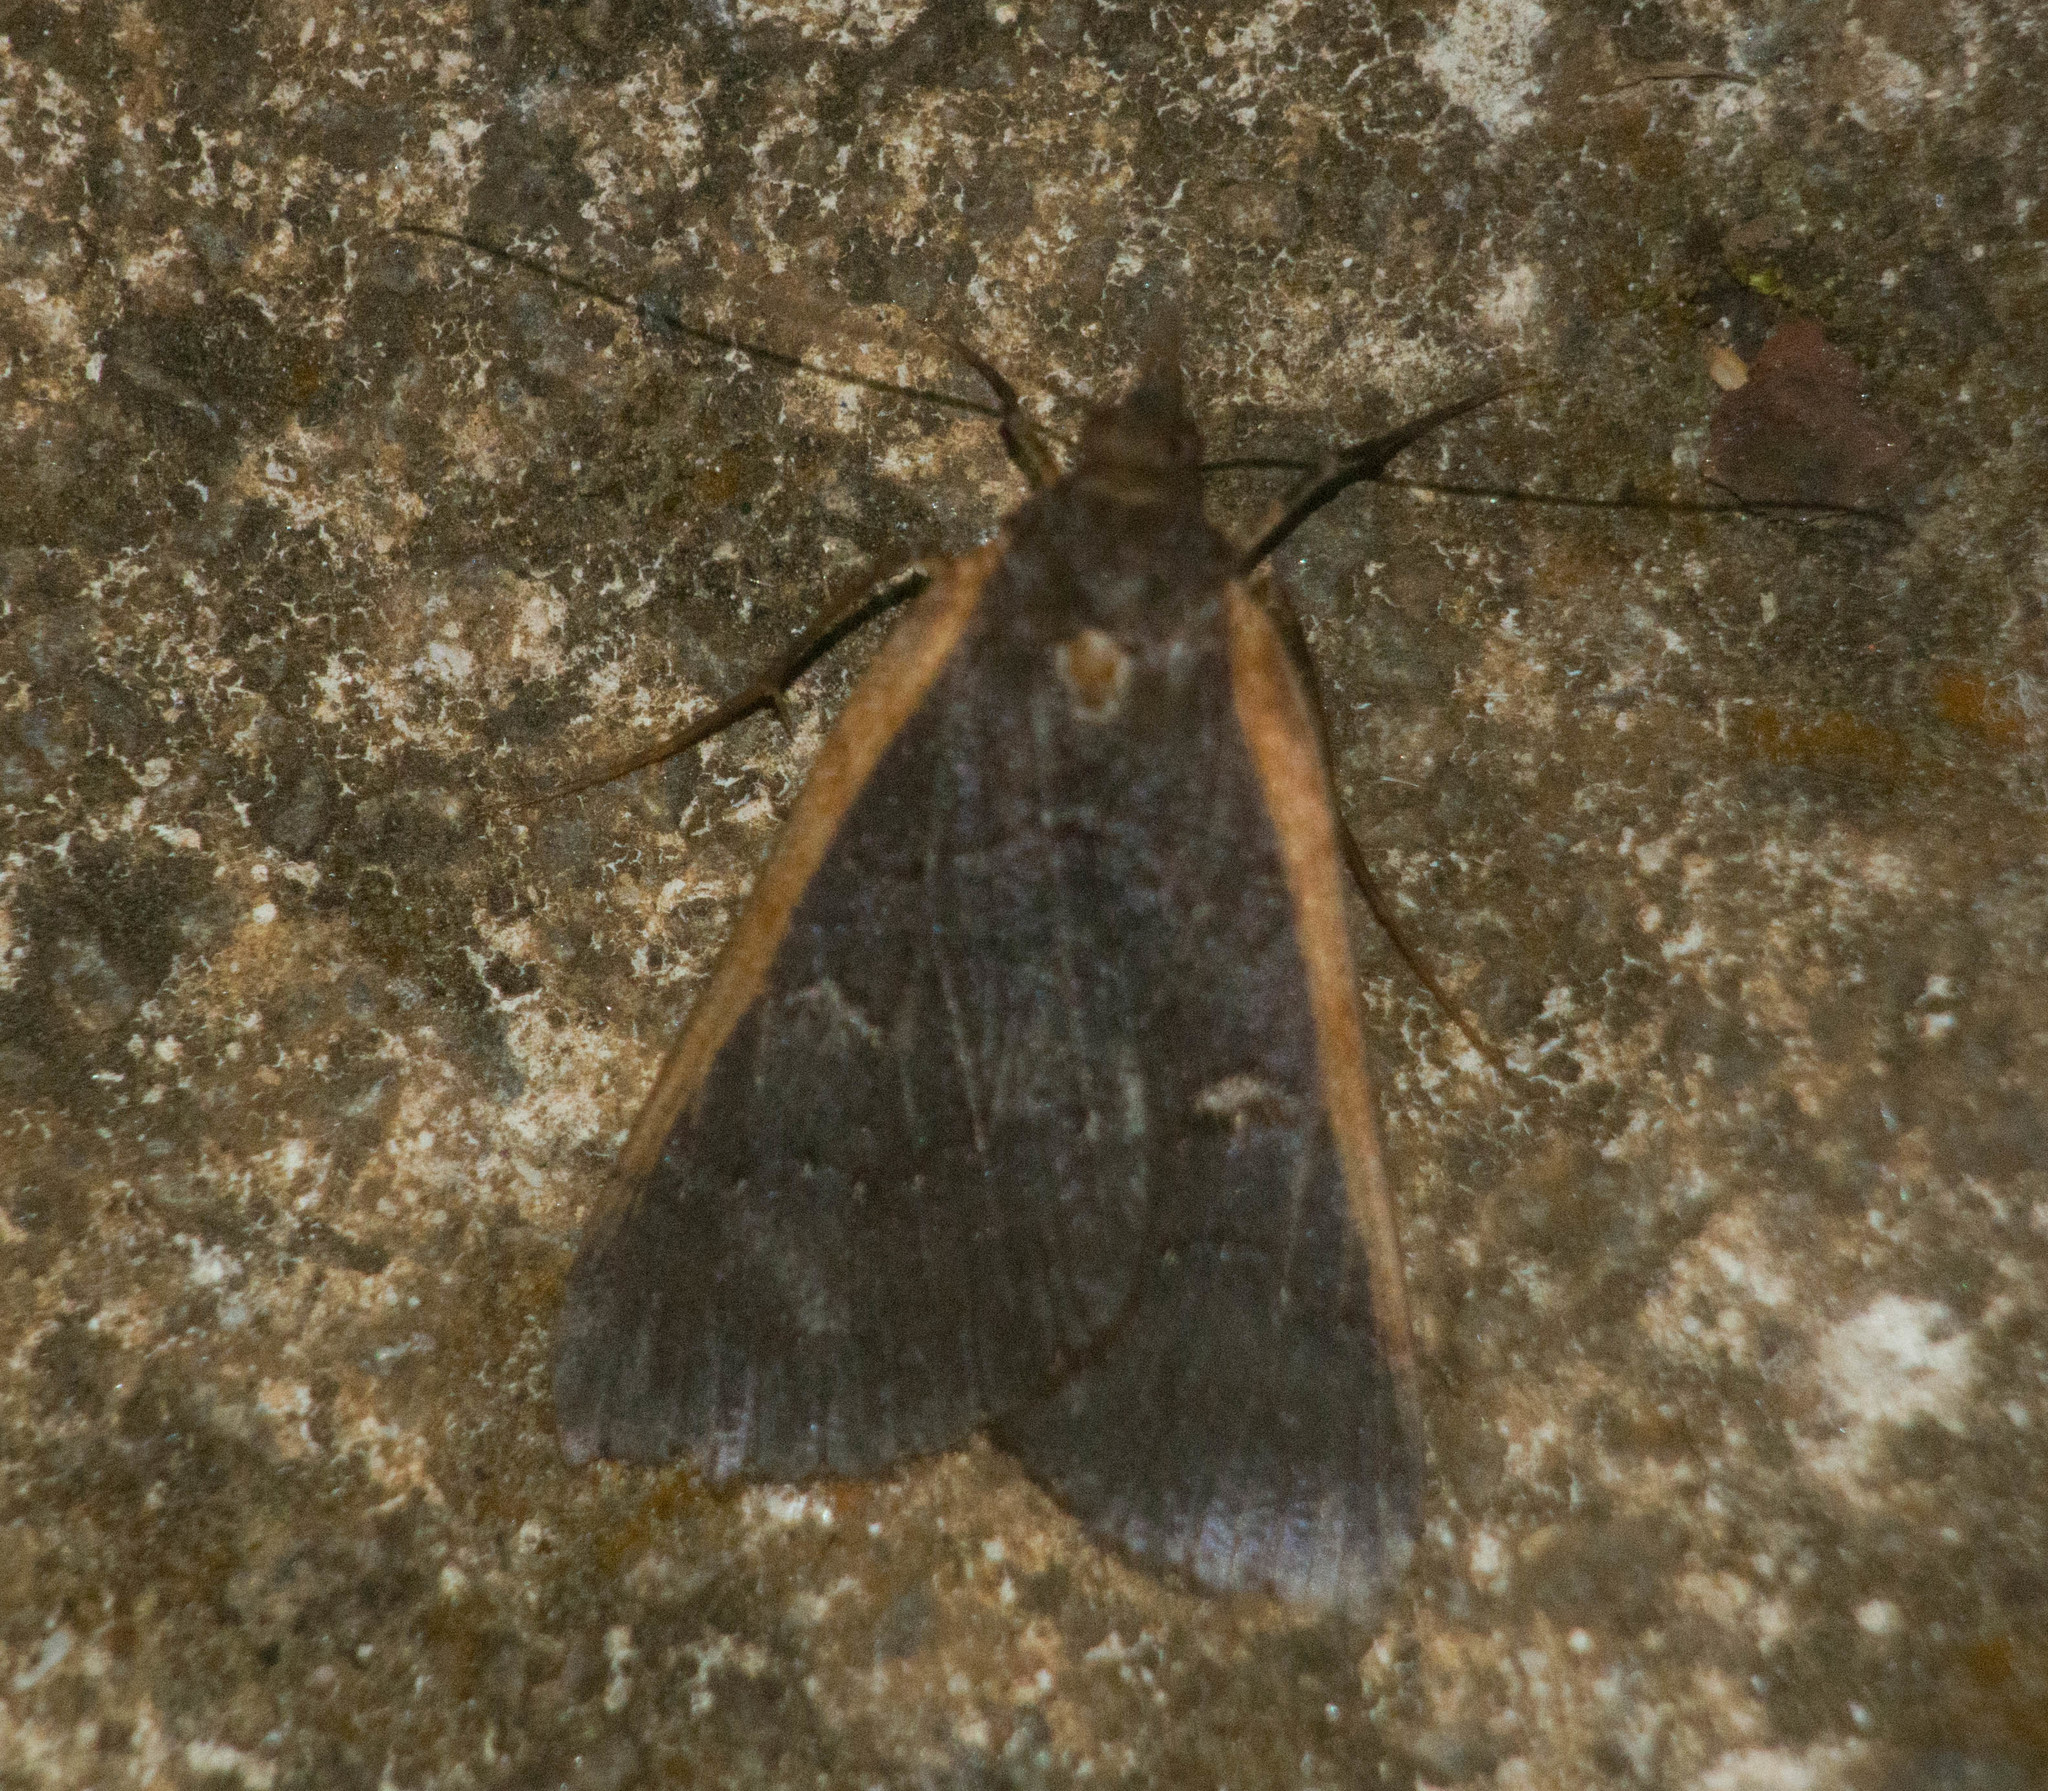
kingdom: Animalia
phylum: Arthropoda
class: Insecta
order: Lepidoptera
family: Geometridae
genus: Scotorythra
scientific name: Scotorythra rara
